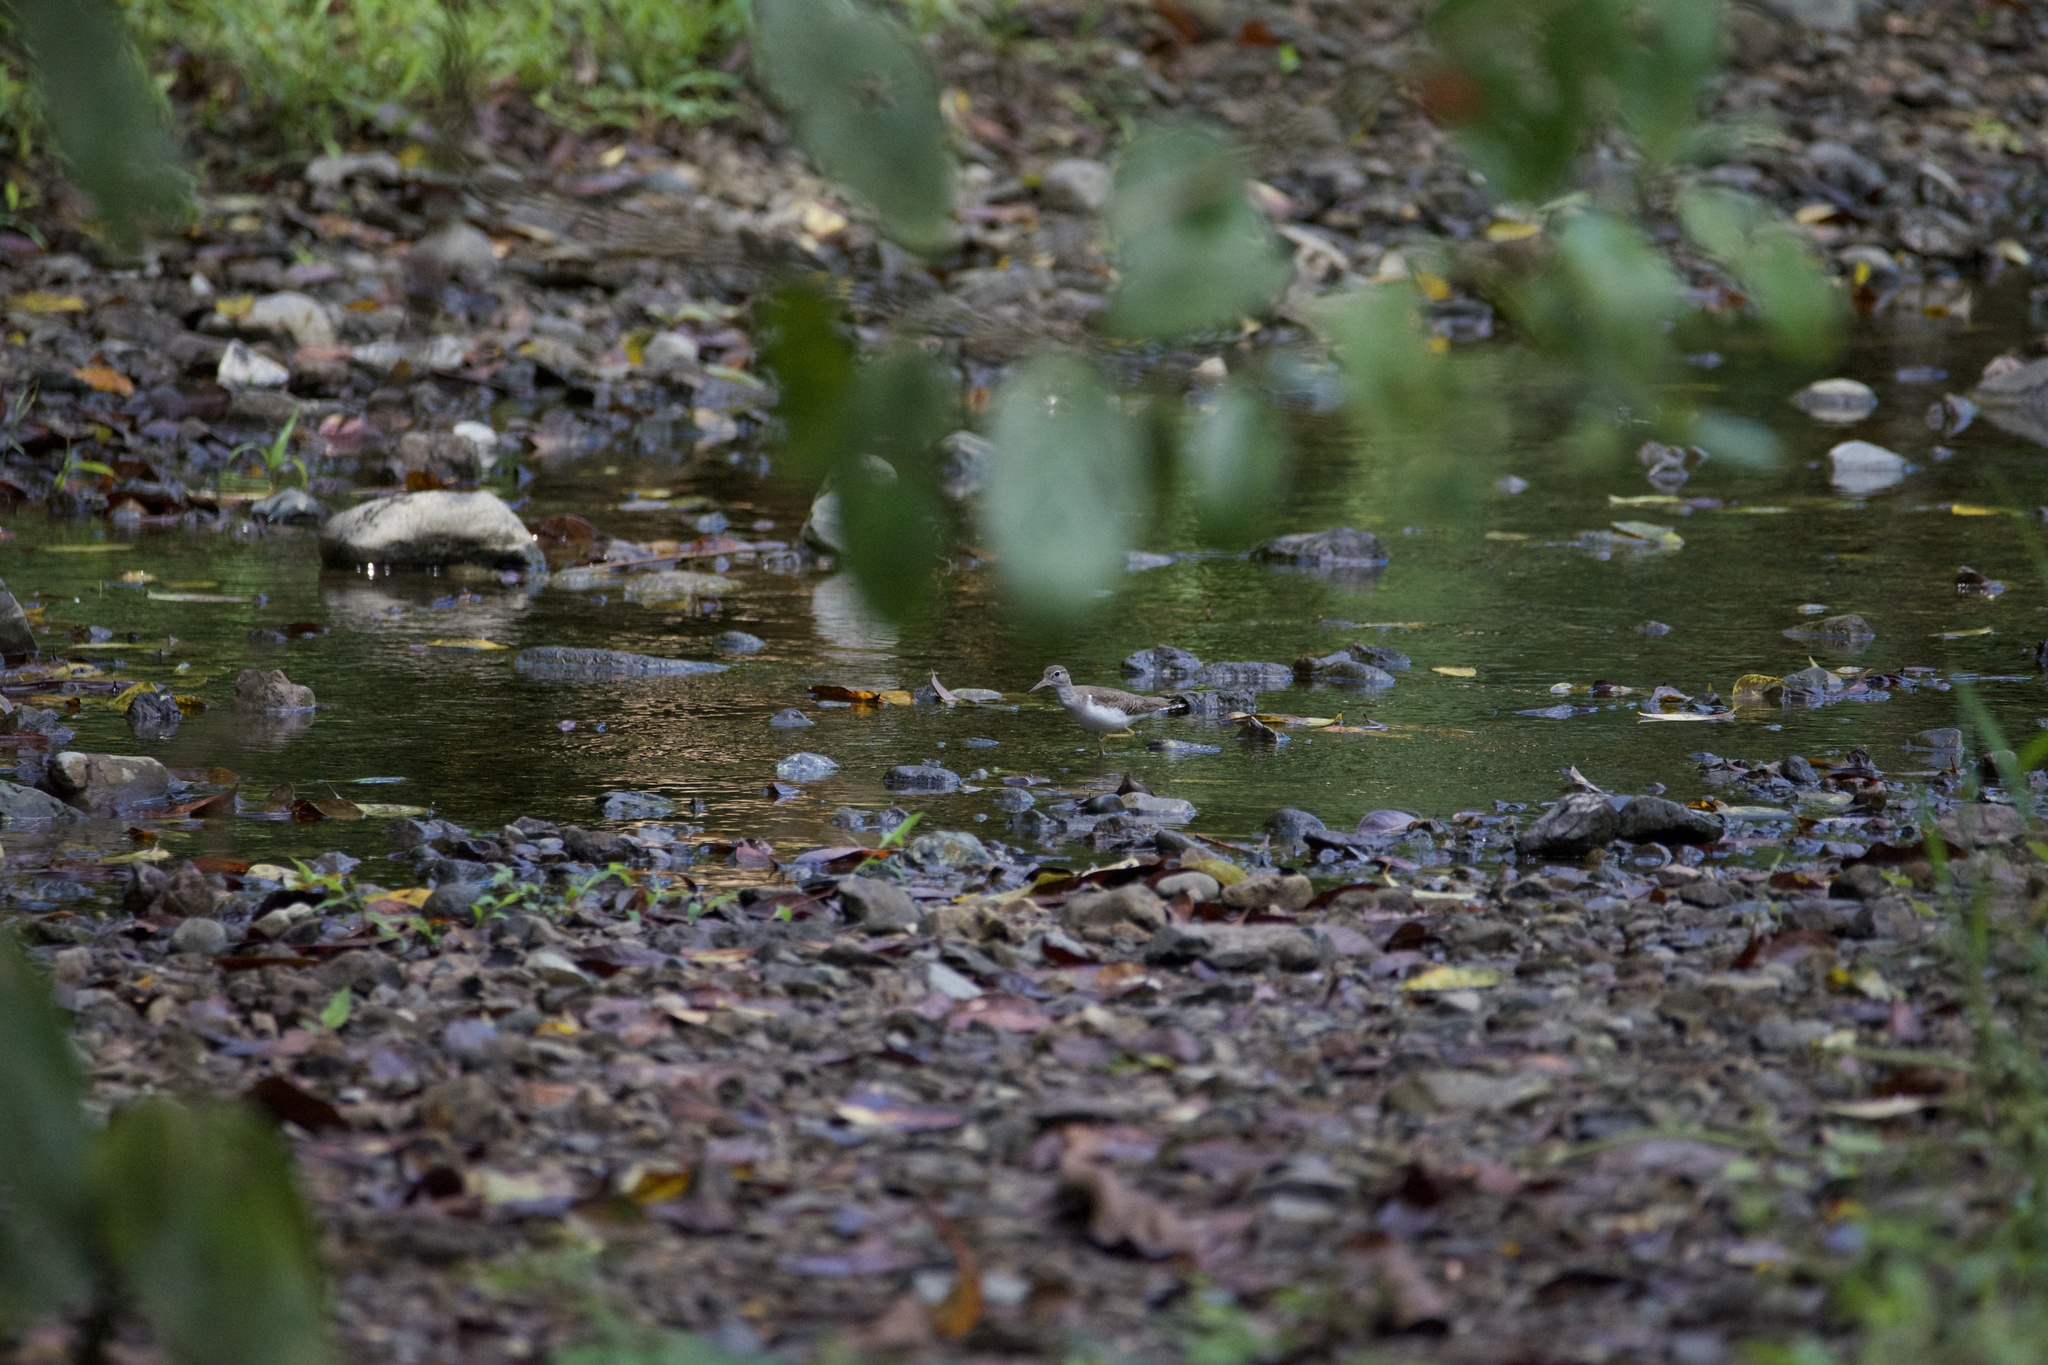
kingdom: Animalia
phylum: Chordata
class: Aves
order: Charadriiformes
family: Scolopacidae
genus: Actitis
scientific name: Actitis macularius
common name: Spotted sandpiper
